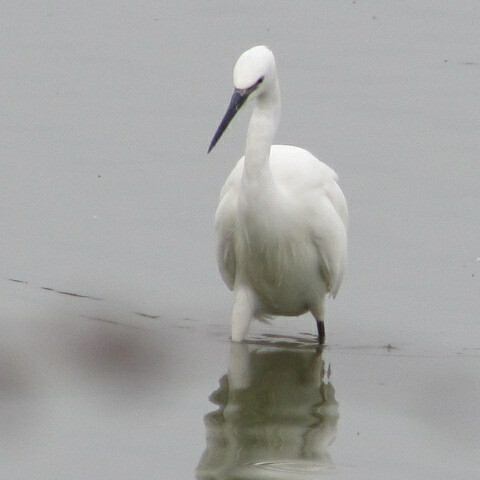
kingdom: Animalia
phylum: Chordata
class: Aves
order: Pelecaniformes
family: Ardeidae
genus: Egretta
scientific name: Egretta garzetta
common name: Little egret
